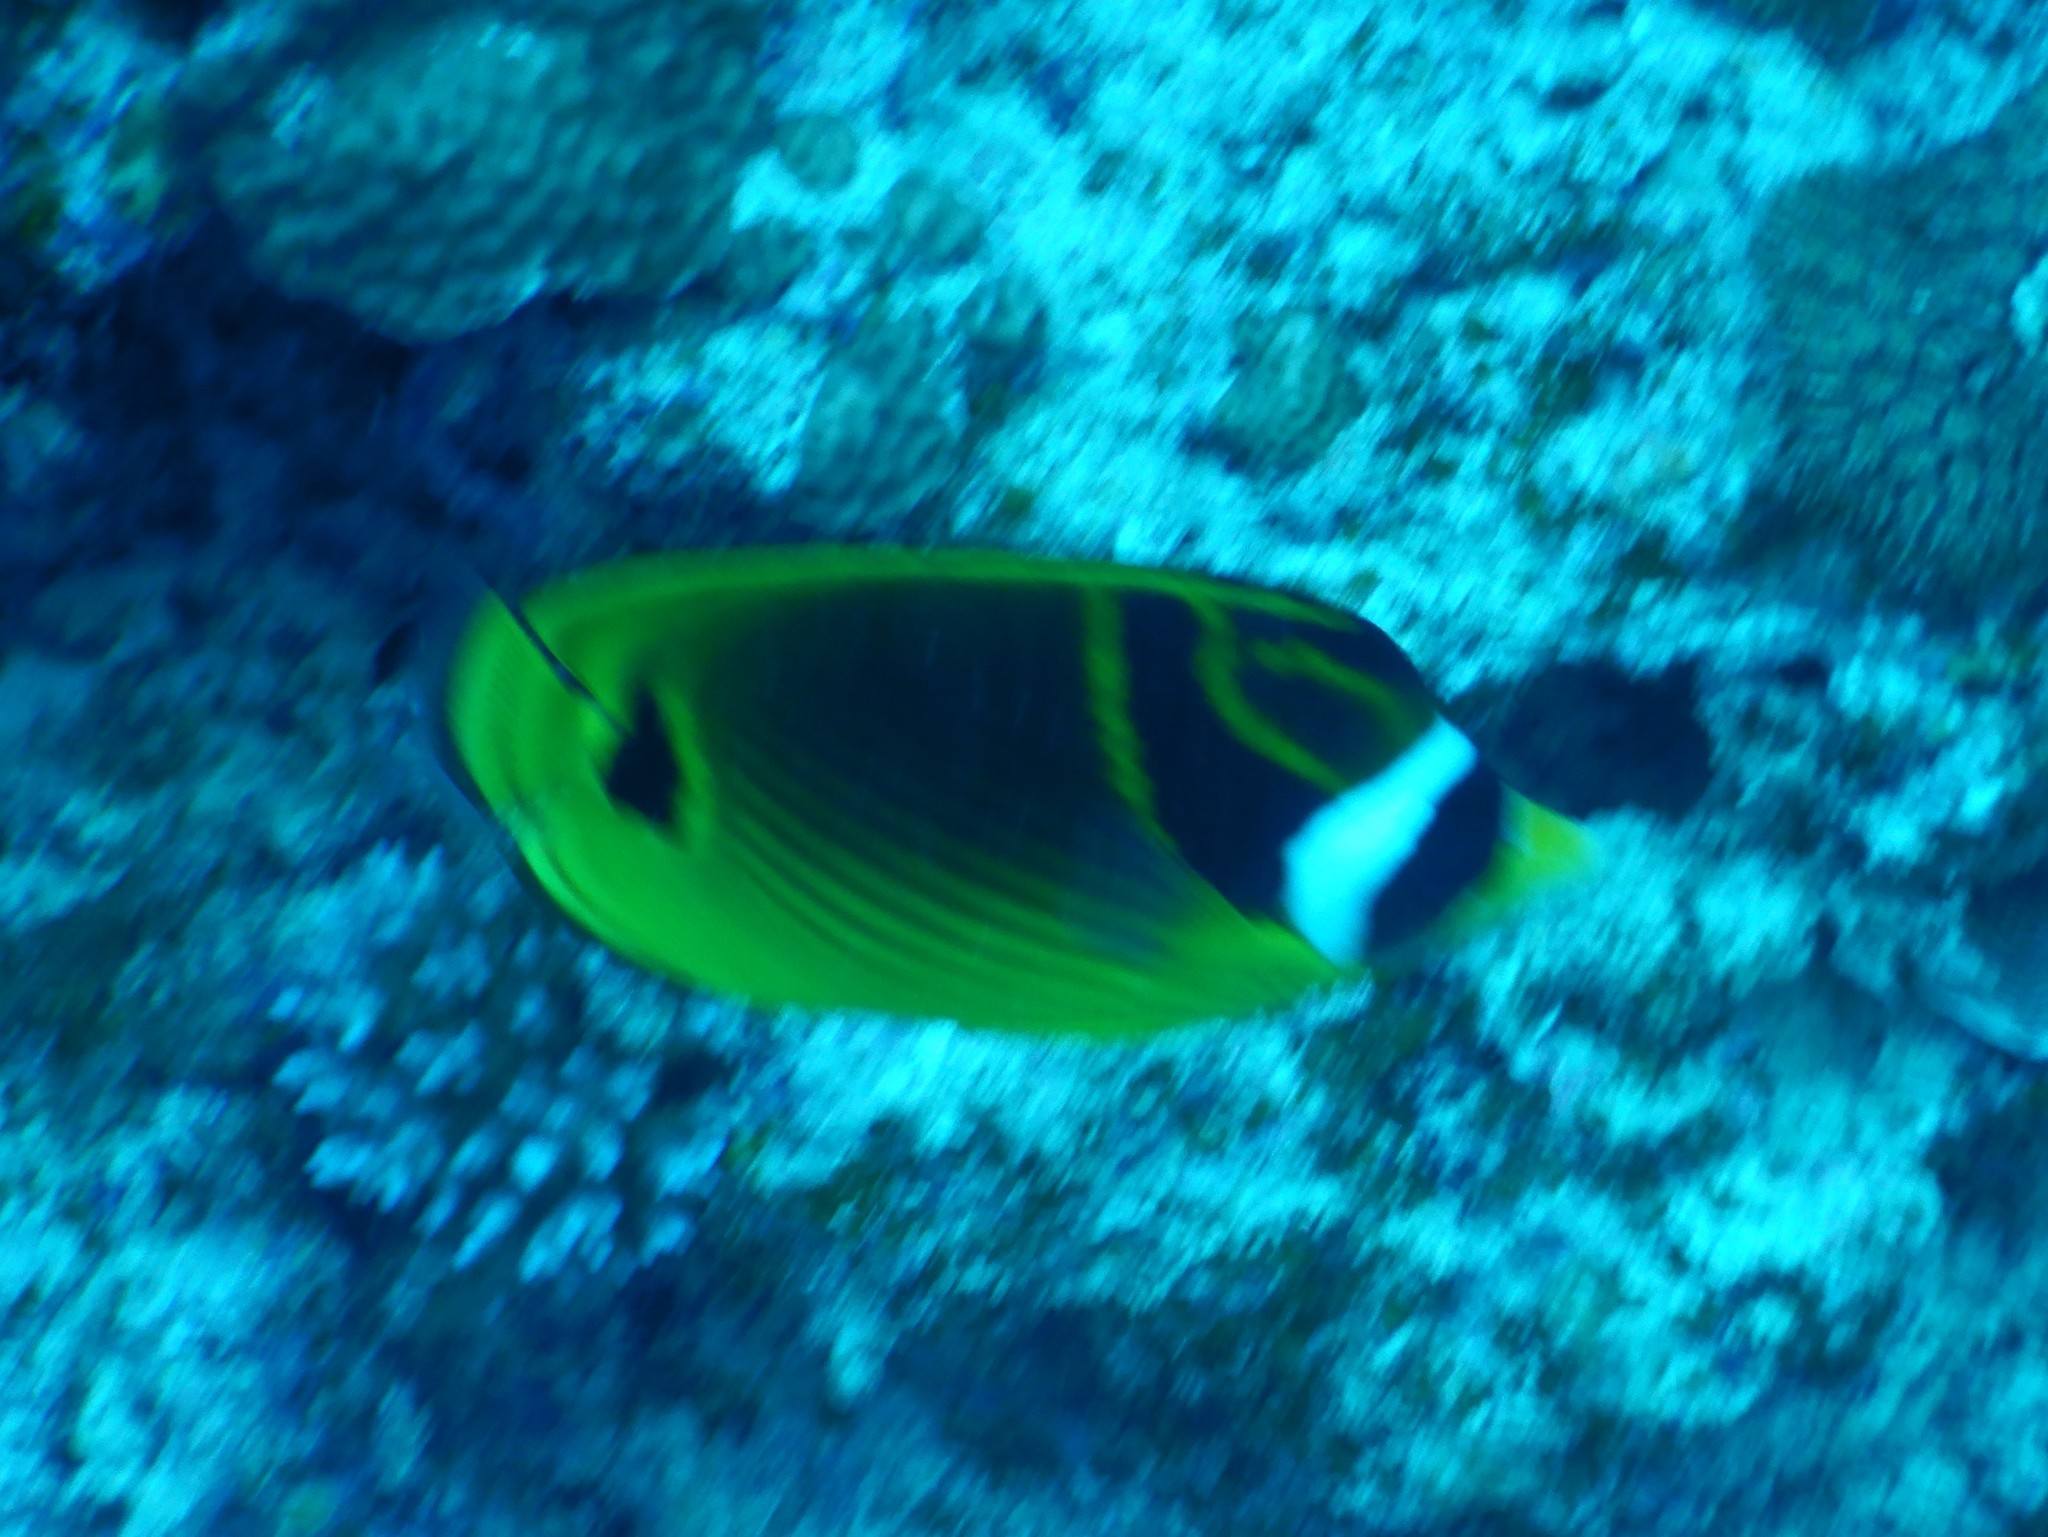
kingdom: Animalia
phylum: Chordata
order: Perciformes
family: Chaetodontidae
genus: Chaetodon
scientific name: Chaetodon lunula
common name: Raccoon butterflyfish
